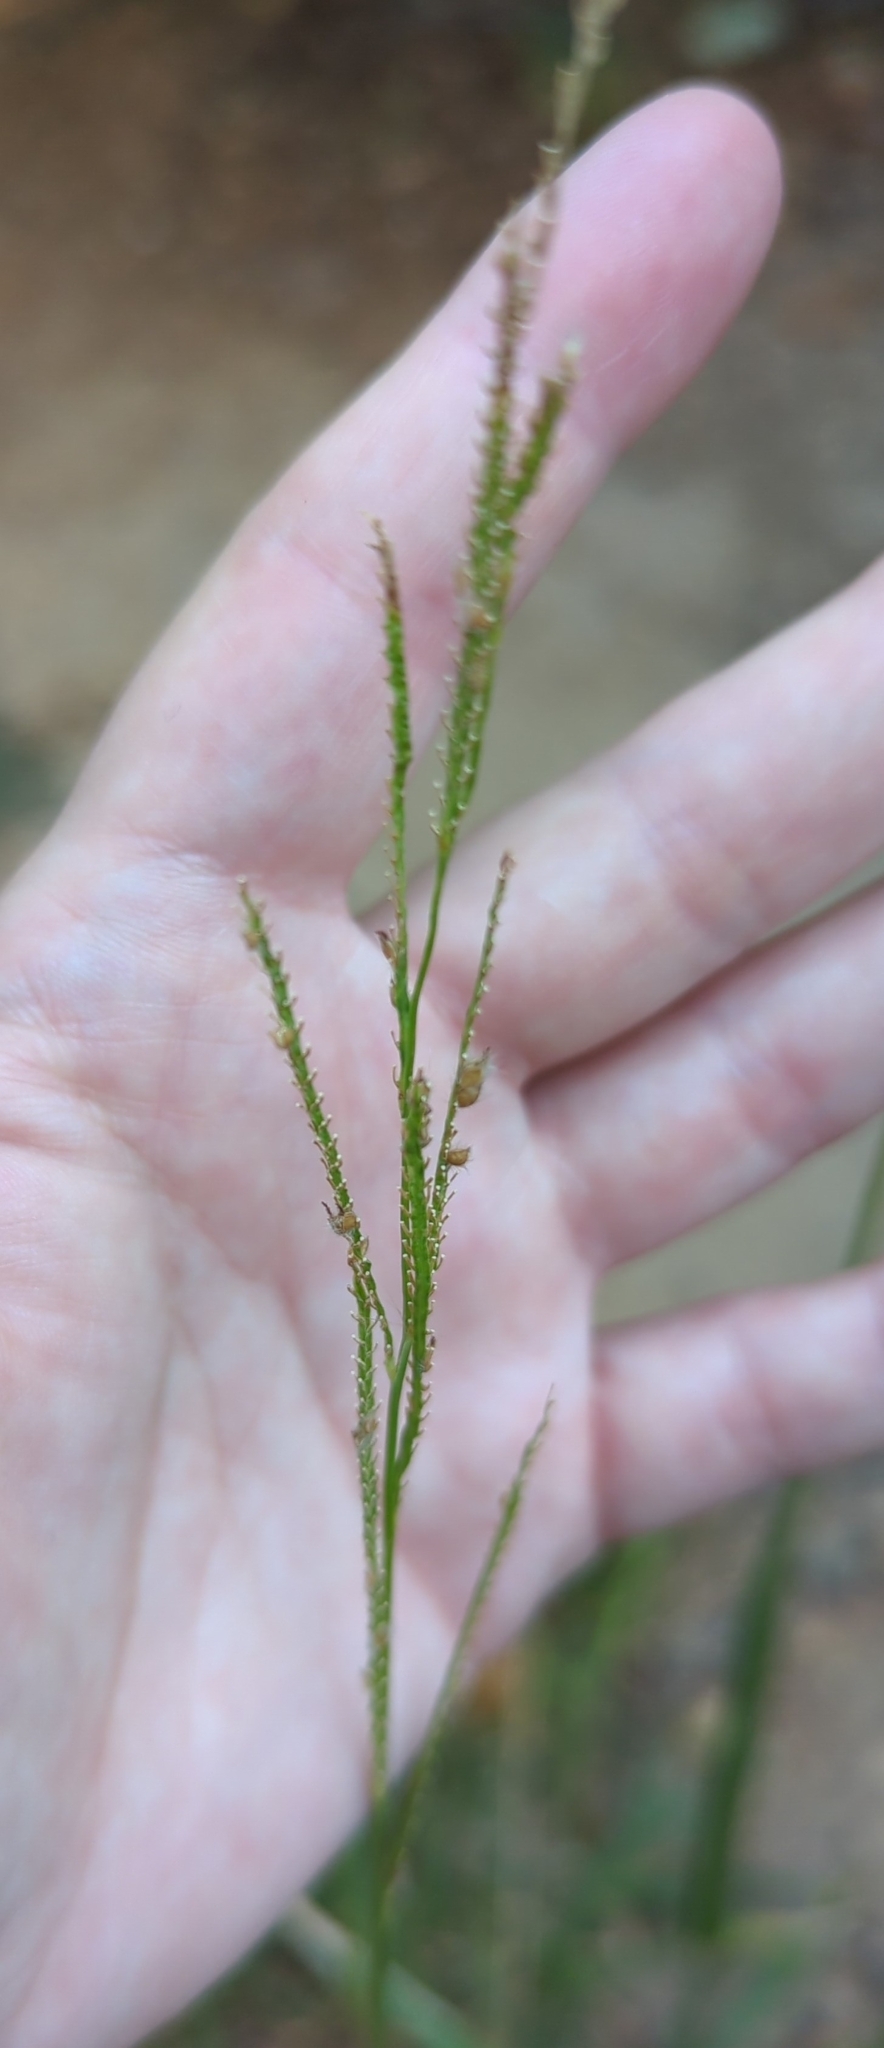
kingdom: Plantae
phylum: Tracheophyta
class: Liliopsida
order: Poales
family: Poaceae
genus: Paspalum
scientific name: Paspalum urvillei
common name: Vasey's grass
